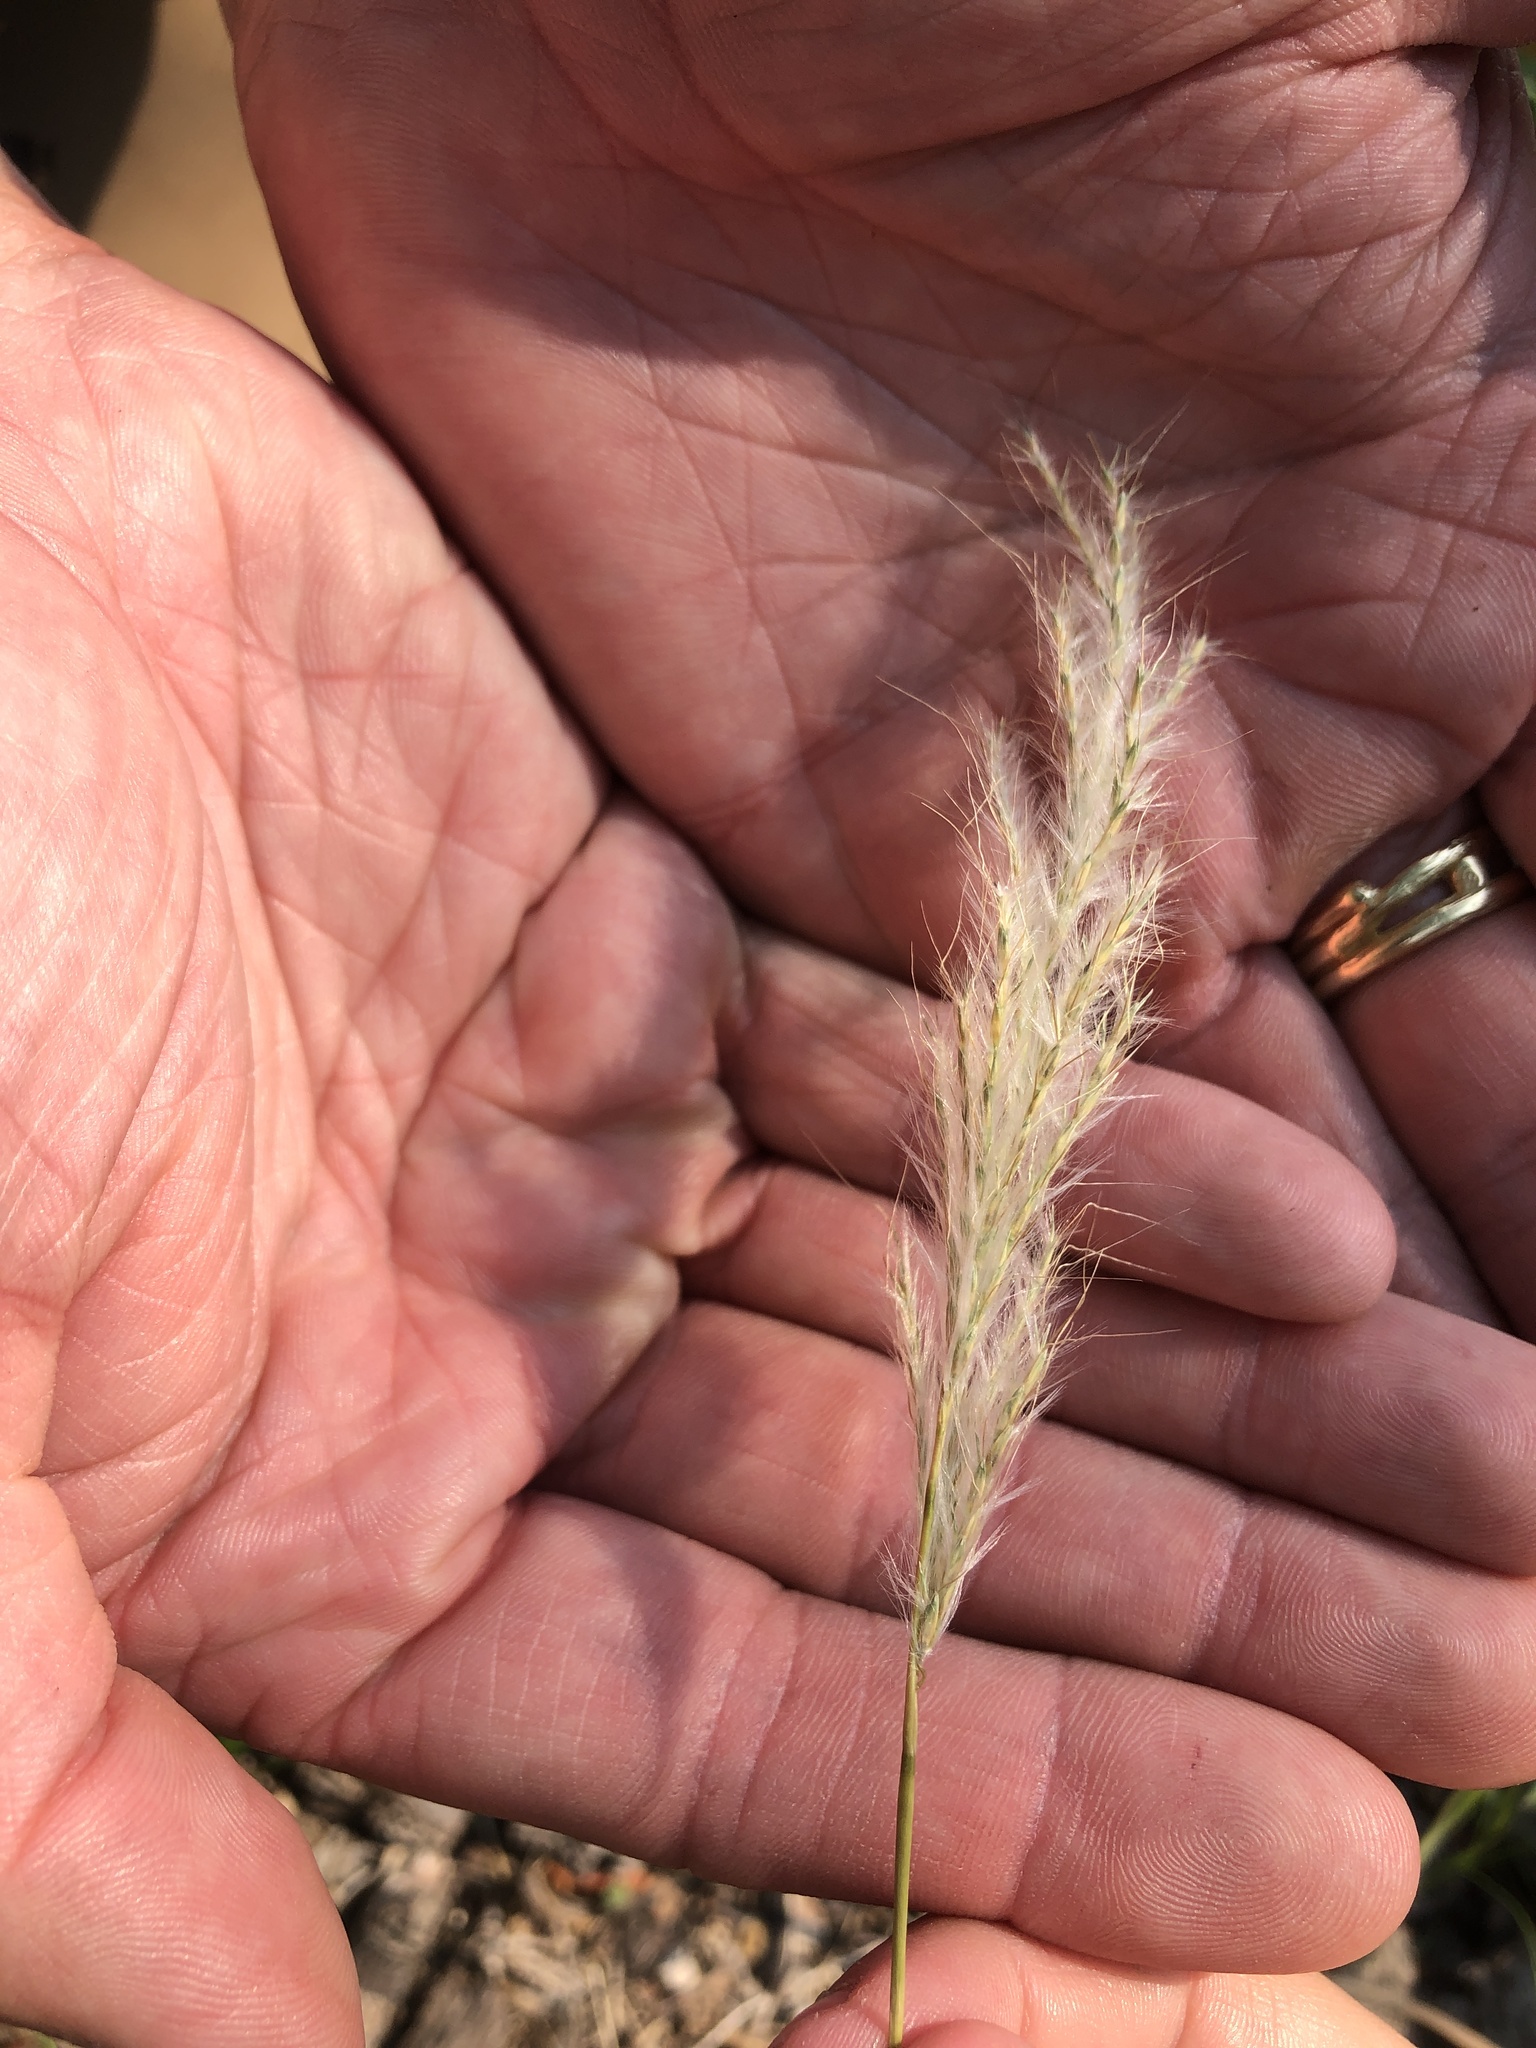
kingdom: Plantae
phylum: Tracheophyta
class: Liliopsida
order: Poales
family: Poaceae
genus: Bothriochloa
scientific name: Bothriochloa torreyana
